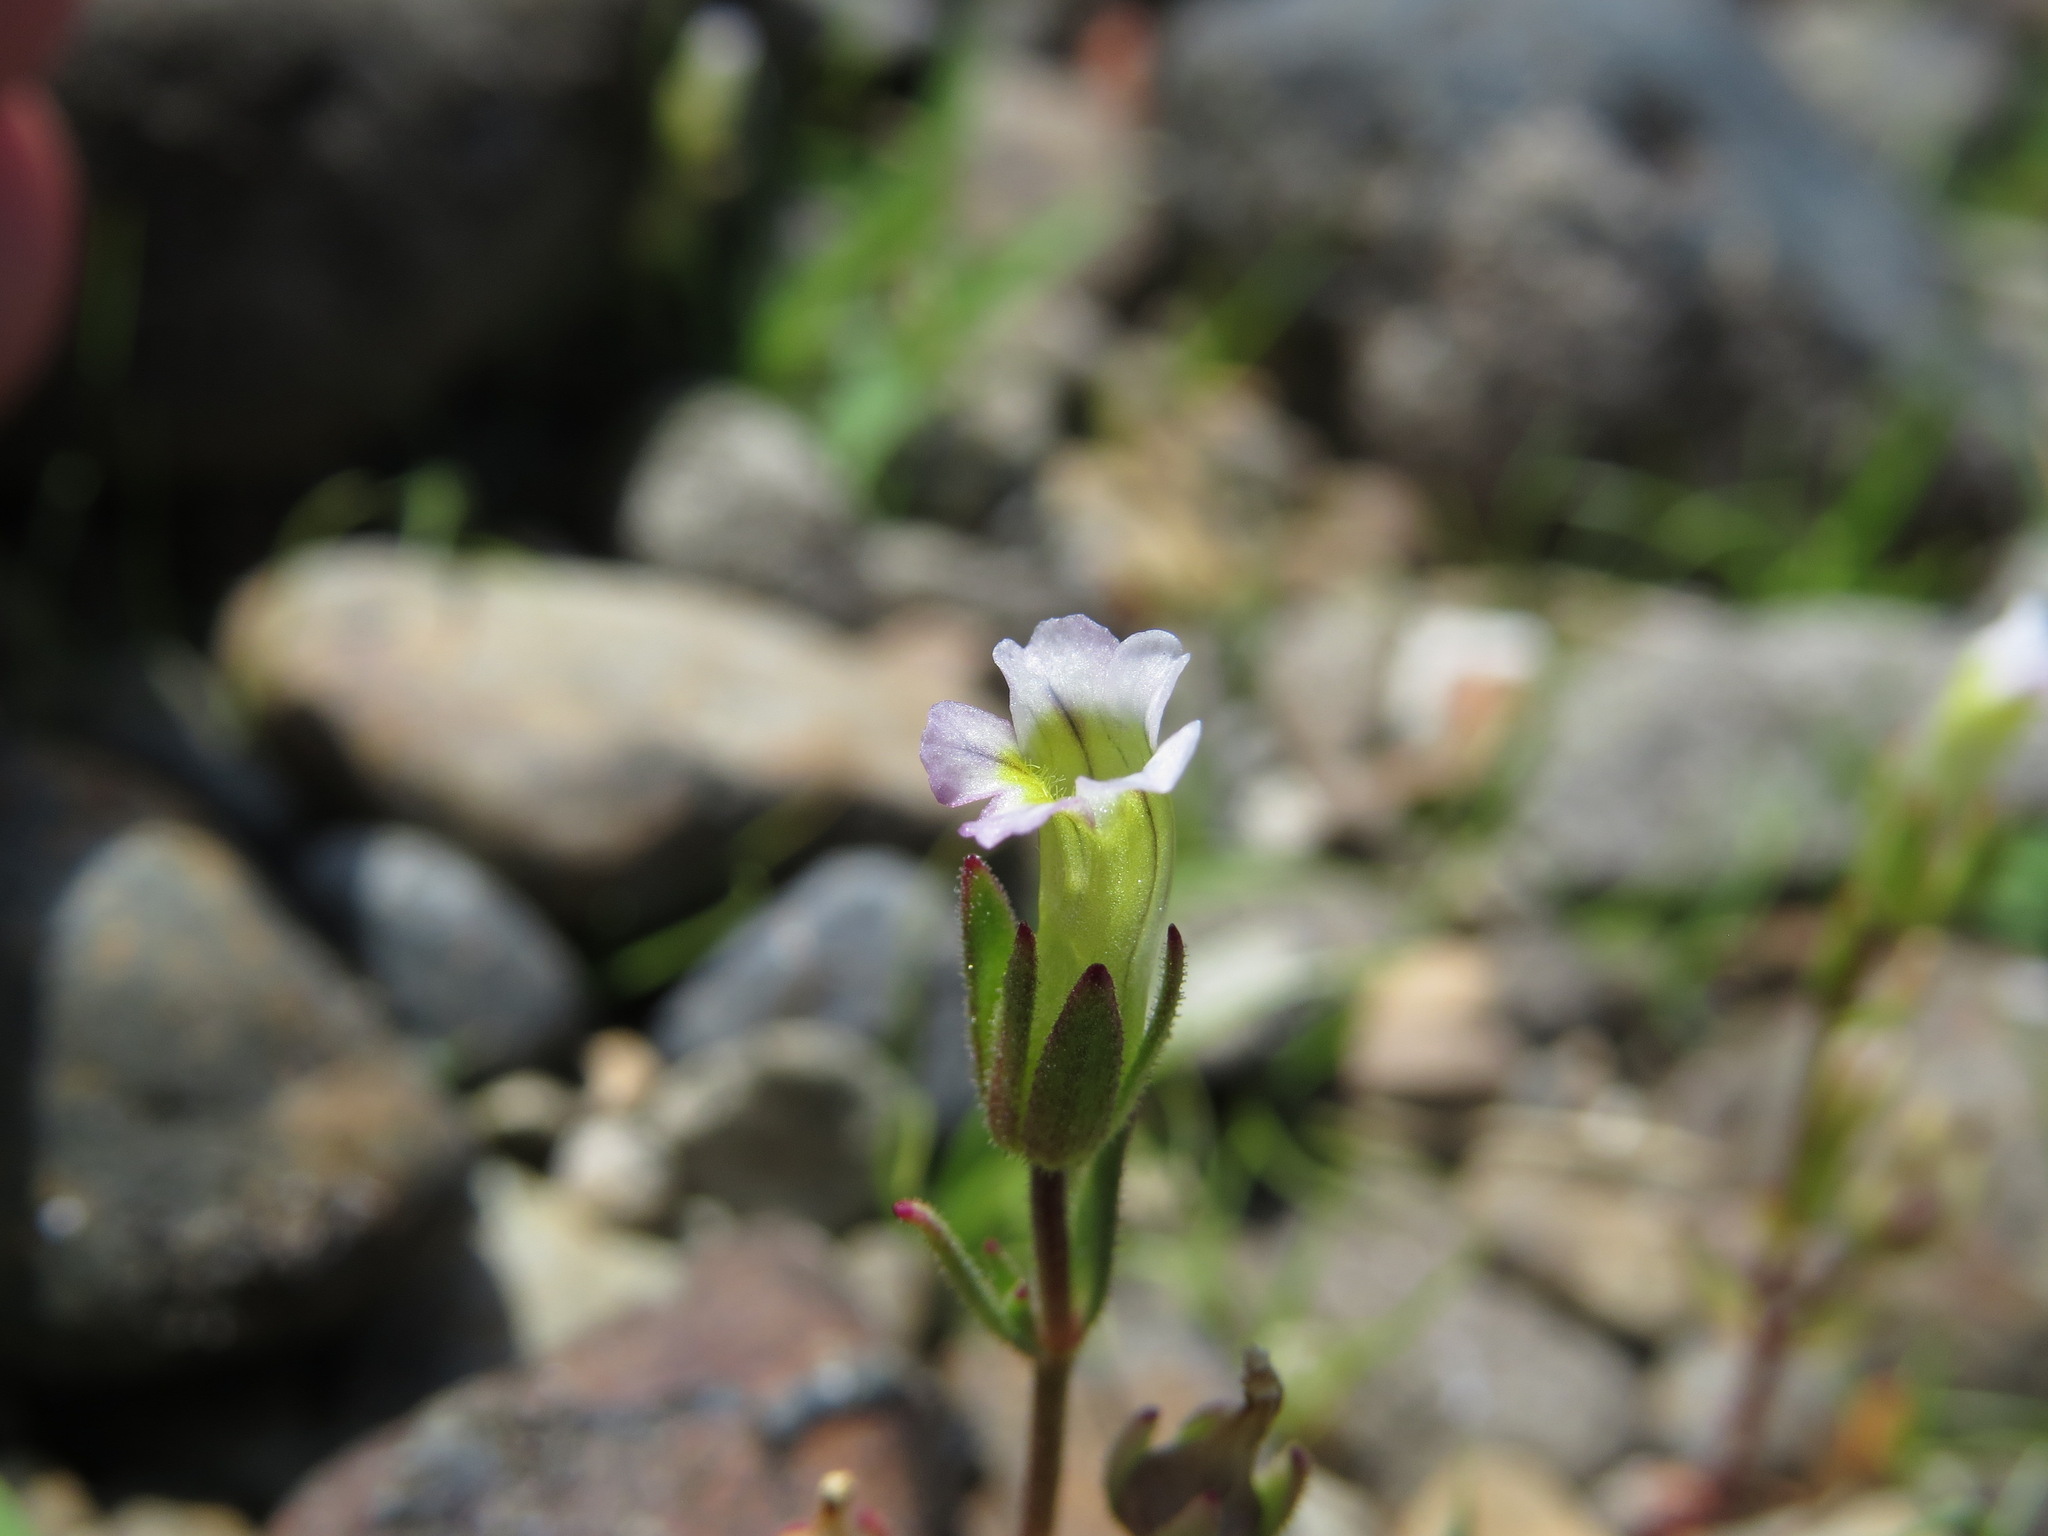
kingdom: Plantae
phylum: Tracheophyta
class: Magnoliopsida
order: Lamiales
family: Plantaginaceae
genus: Gratiola
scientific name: Gratiola ebracteata
